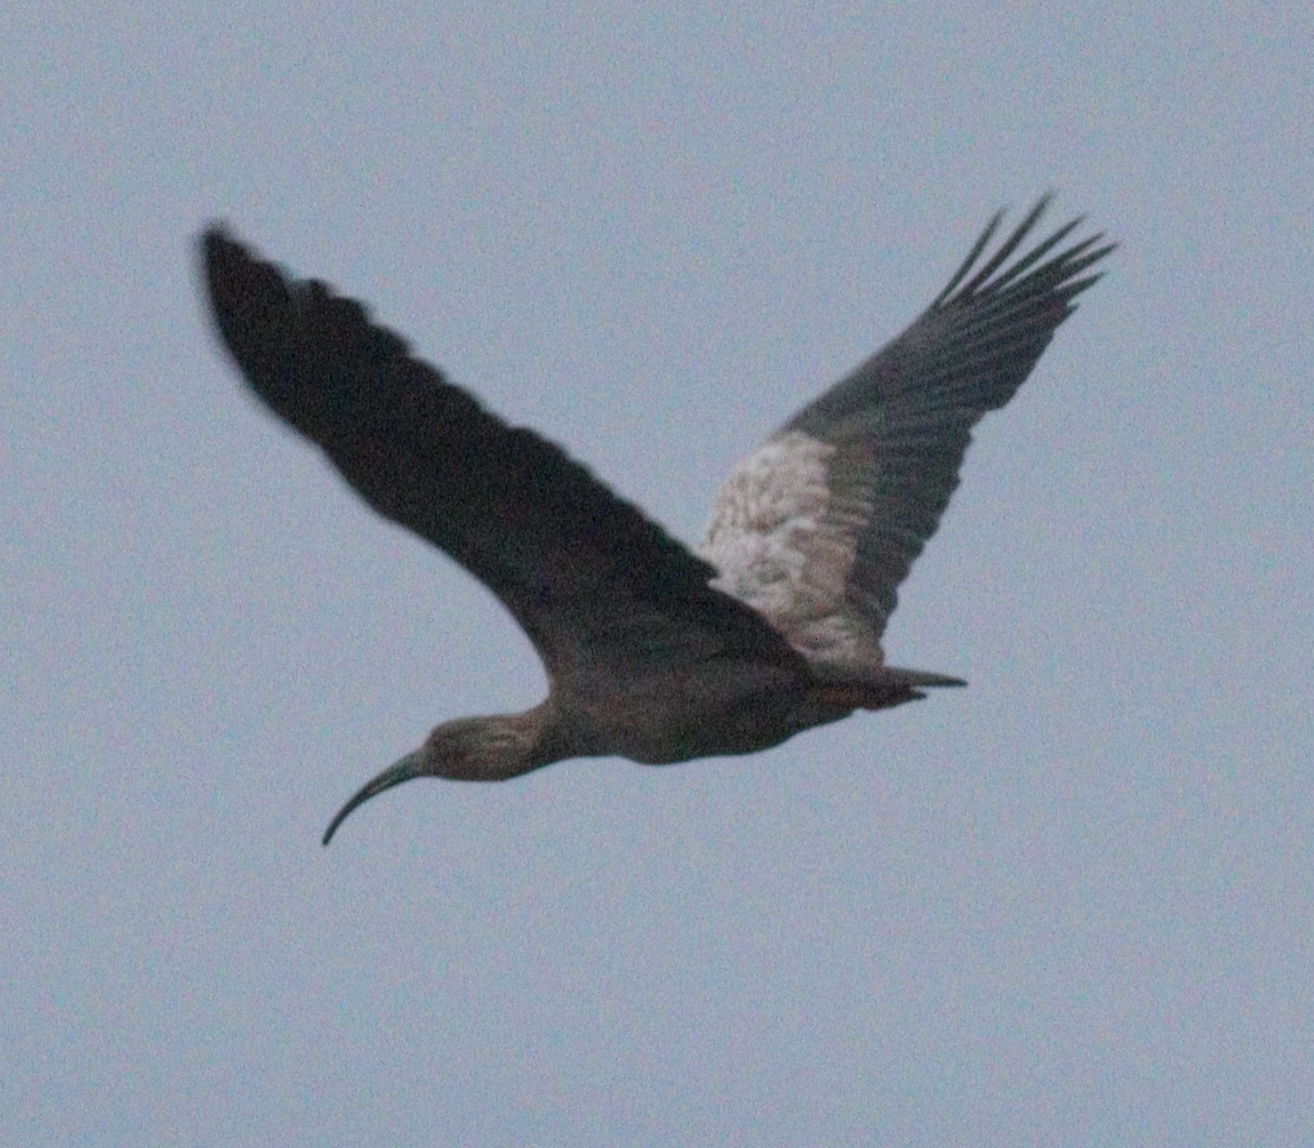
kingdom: Animalia
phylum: Chordata
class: Aves
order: Pelecaniformes
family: Threskiornithidae
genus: Theristicus
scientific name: Theristicus caerulescens
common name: Plumbeous ibis
